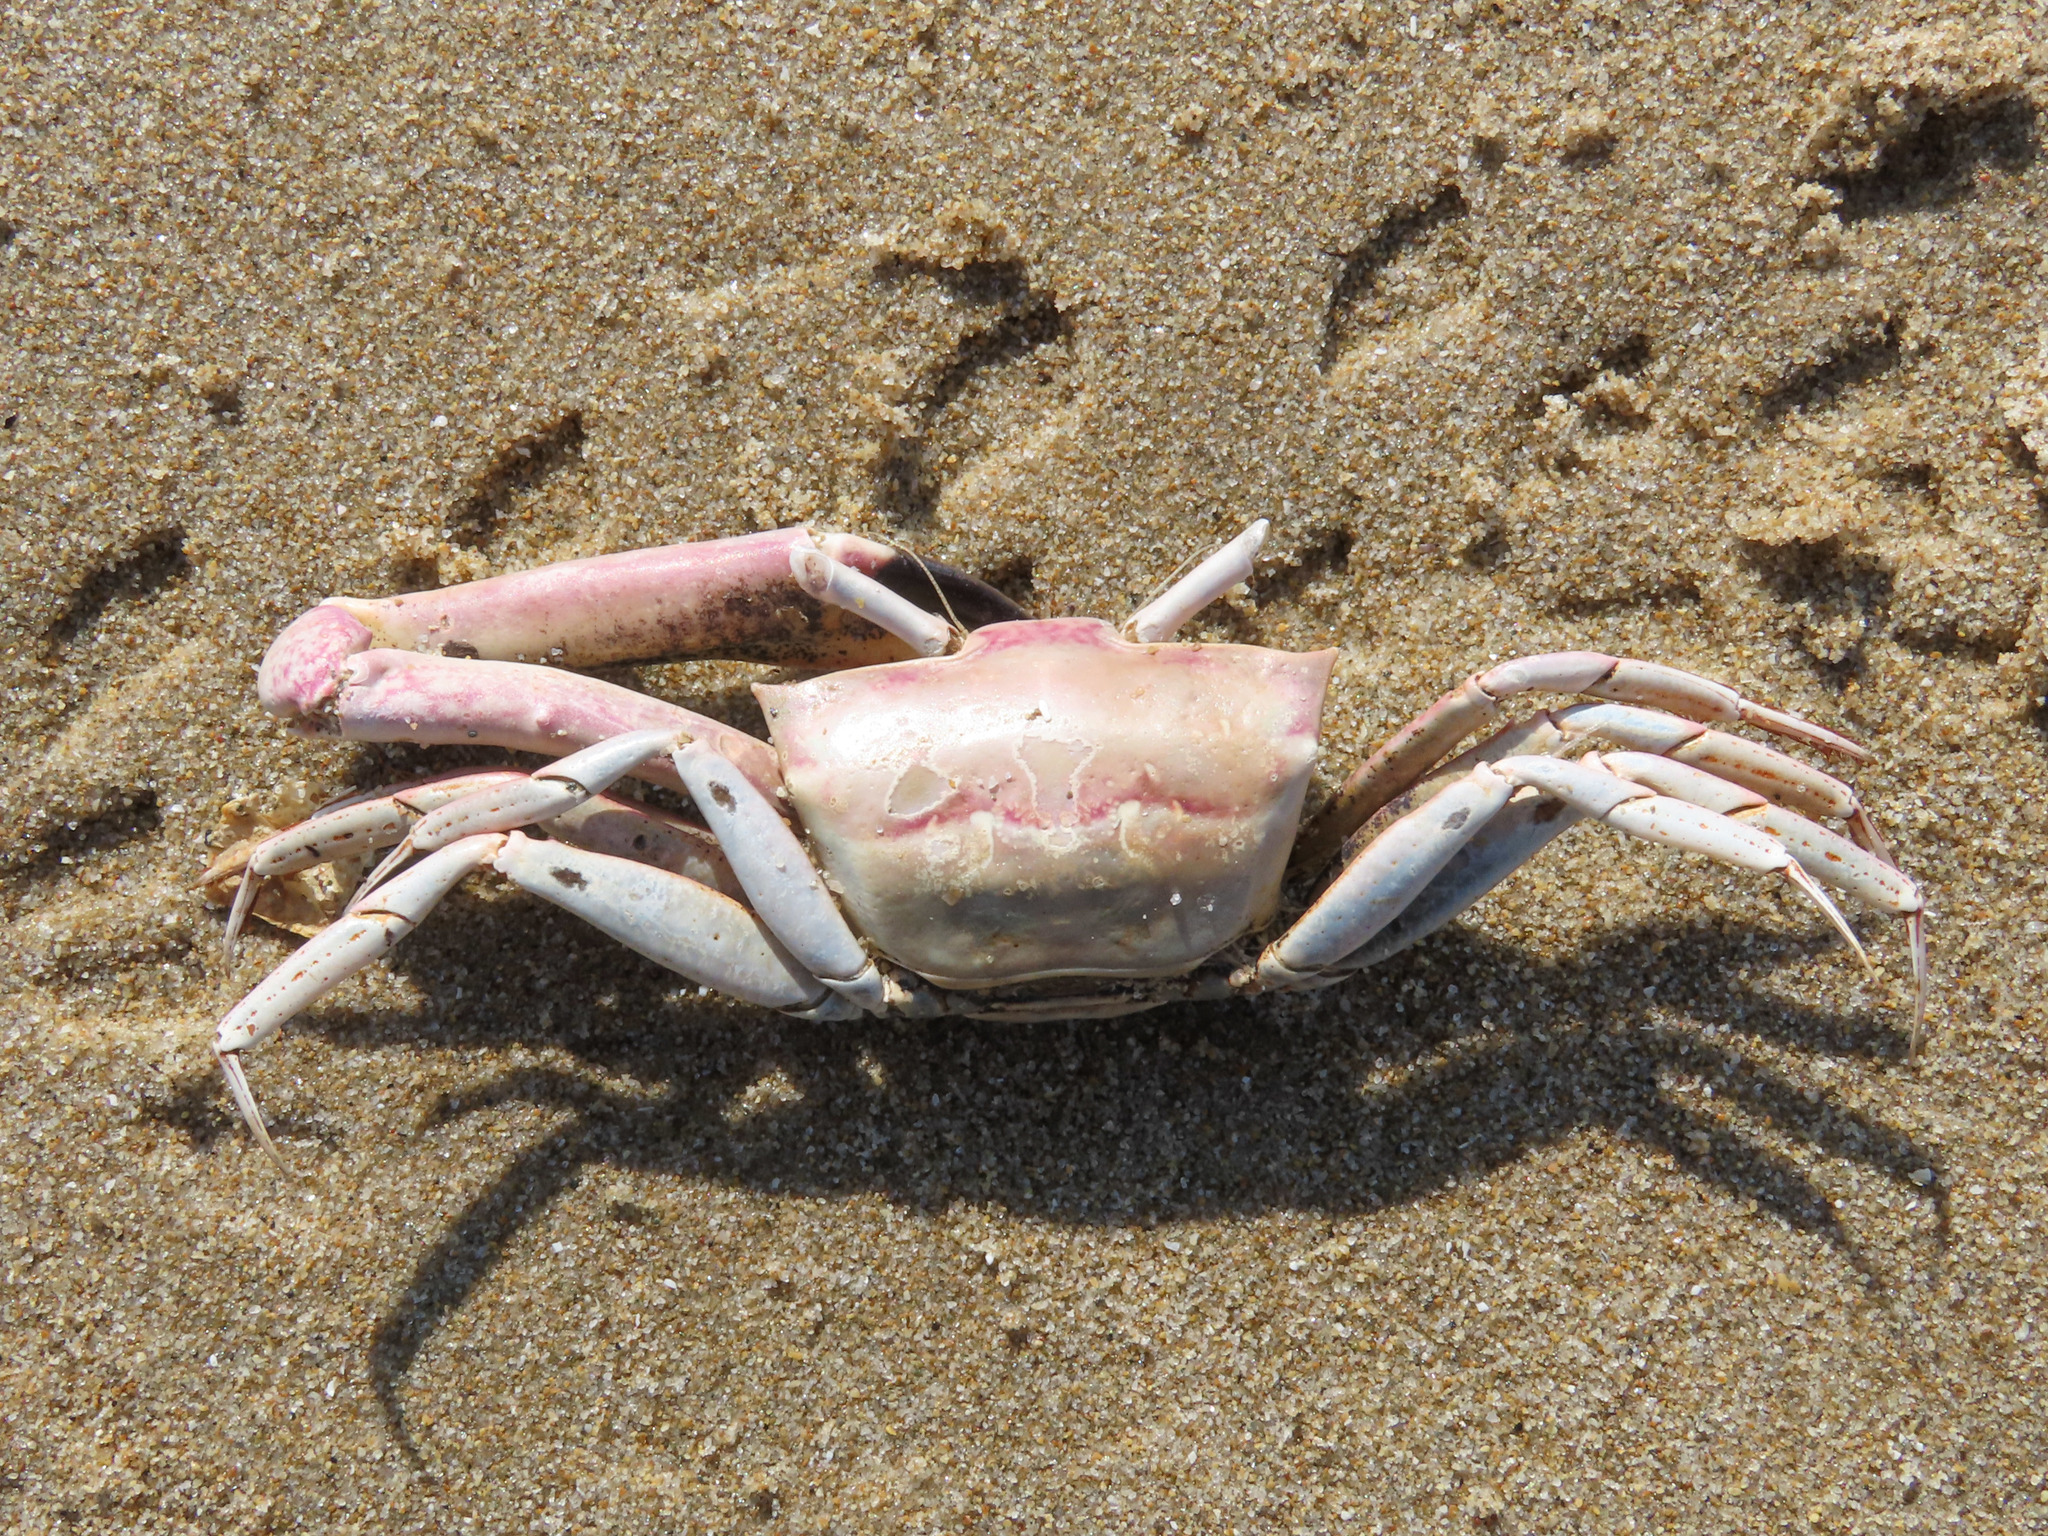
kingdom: Animalia
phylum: Arthropoda
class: Malacostraca
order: Decapoda
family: Goneplacidae
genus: Goneplax
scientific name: Goneplax rhomboides
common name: Angular crab
